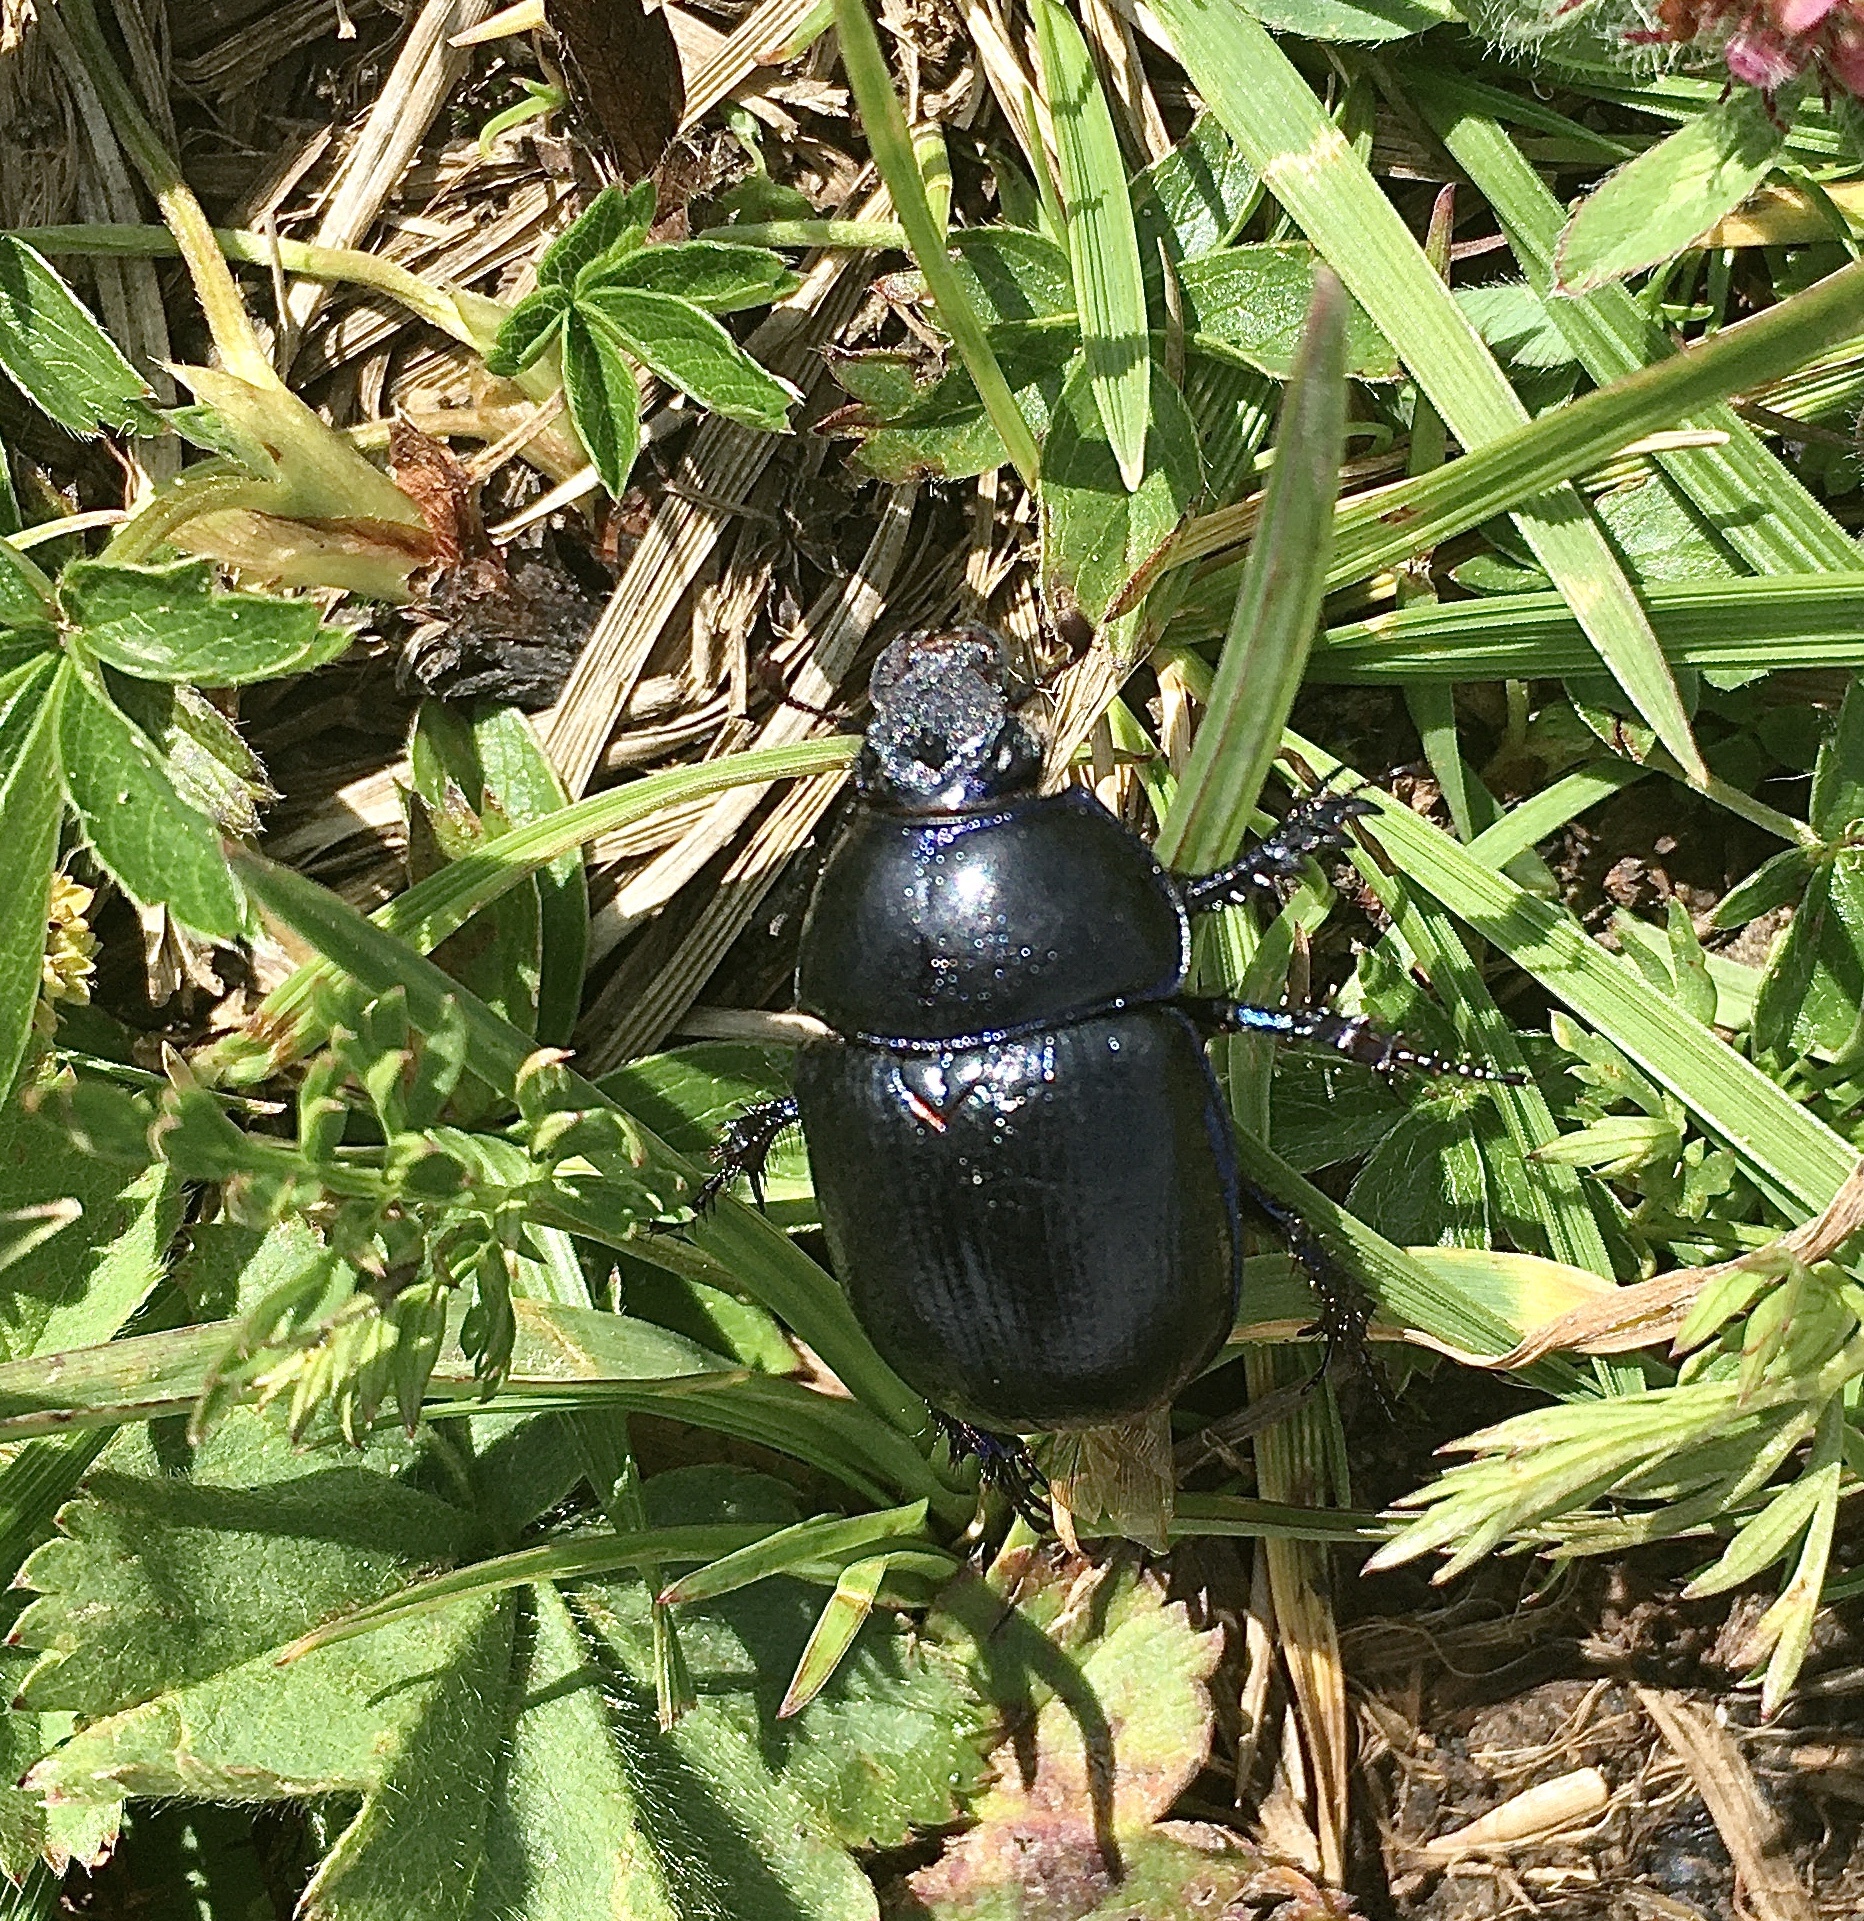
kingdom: Animalia
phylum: Arthropoda
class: Insecta
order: Coleoptera
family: Geotrupidae
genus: Anoplotrupes
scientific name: Anoplotrupes stercorosus
